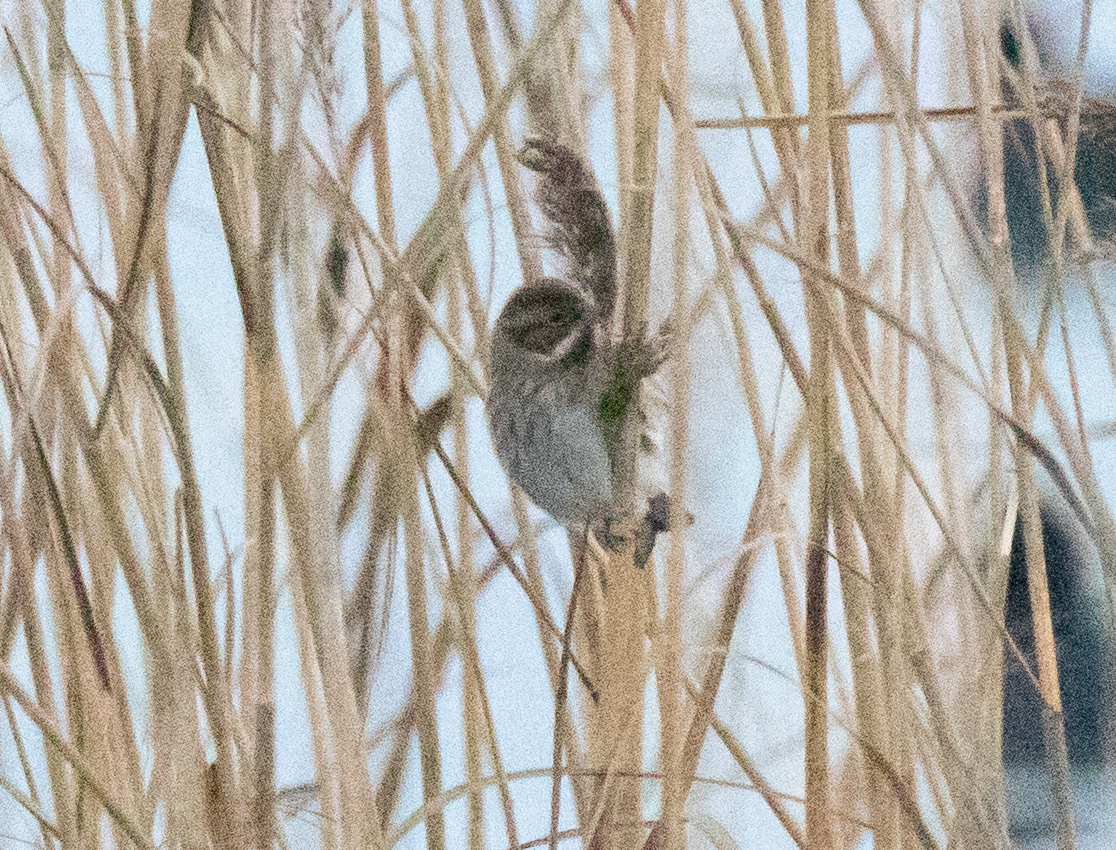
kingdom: Animalia
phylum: Chordata
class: Aves
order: Passeriformes
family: Emberizidae
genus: Emberiza
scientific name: Emberiza schoeniclus
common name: Reed bunting
